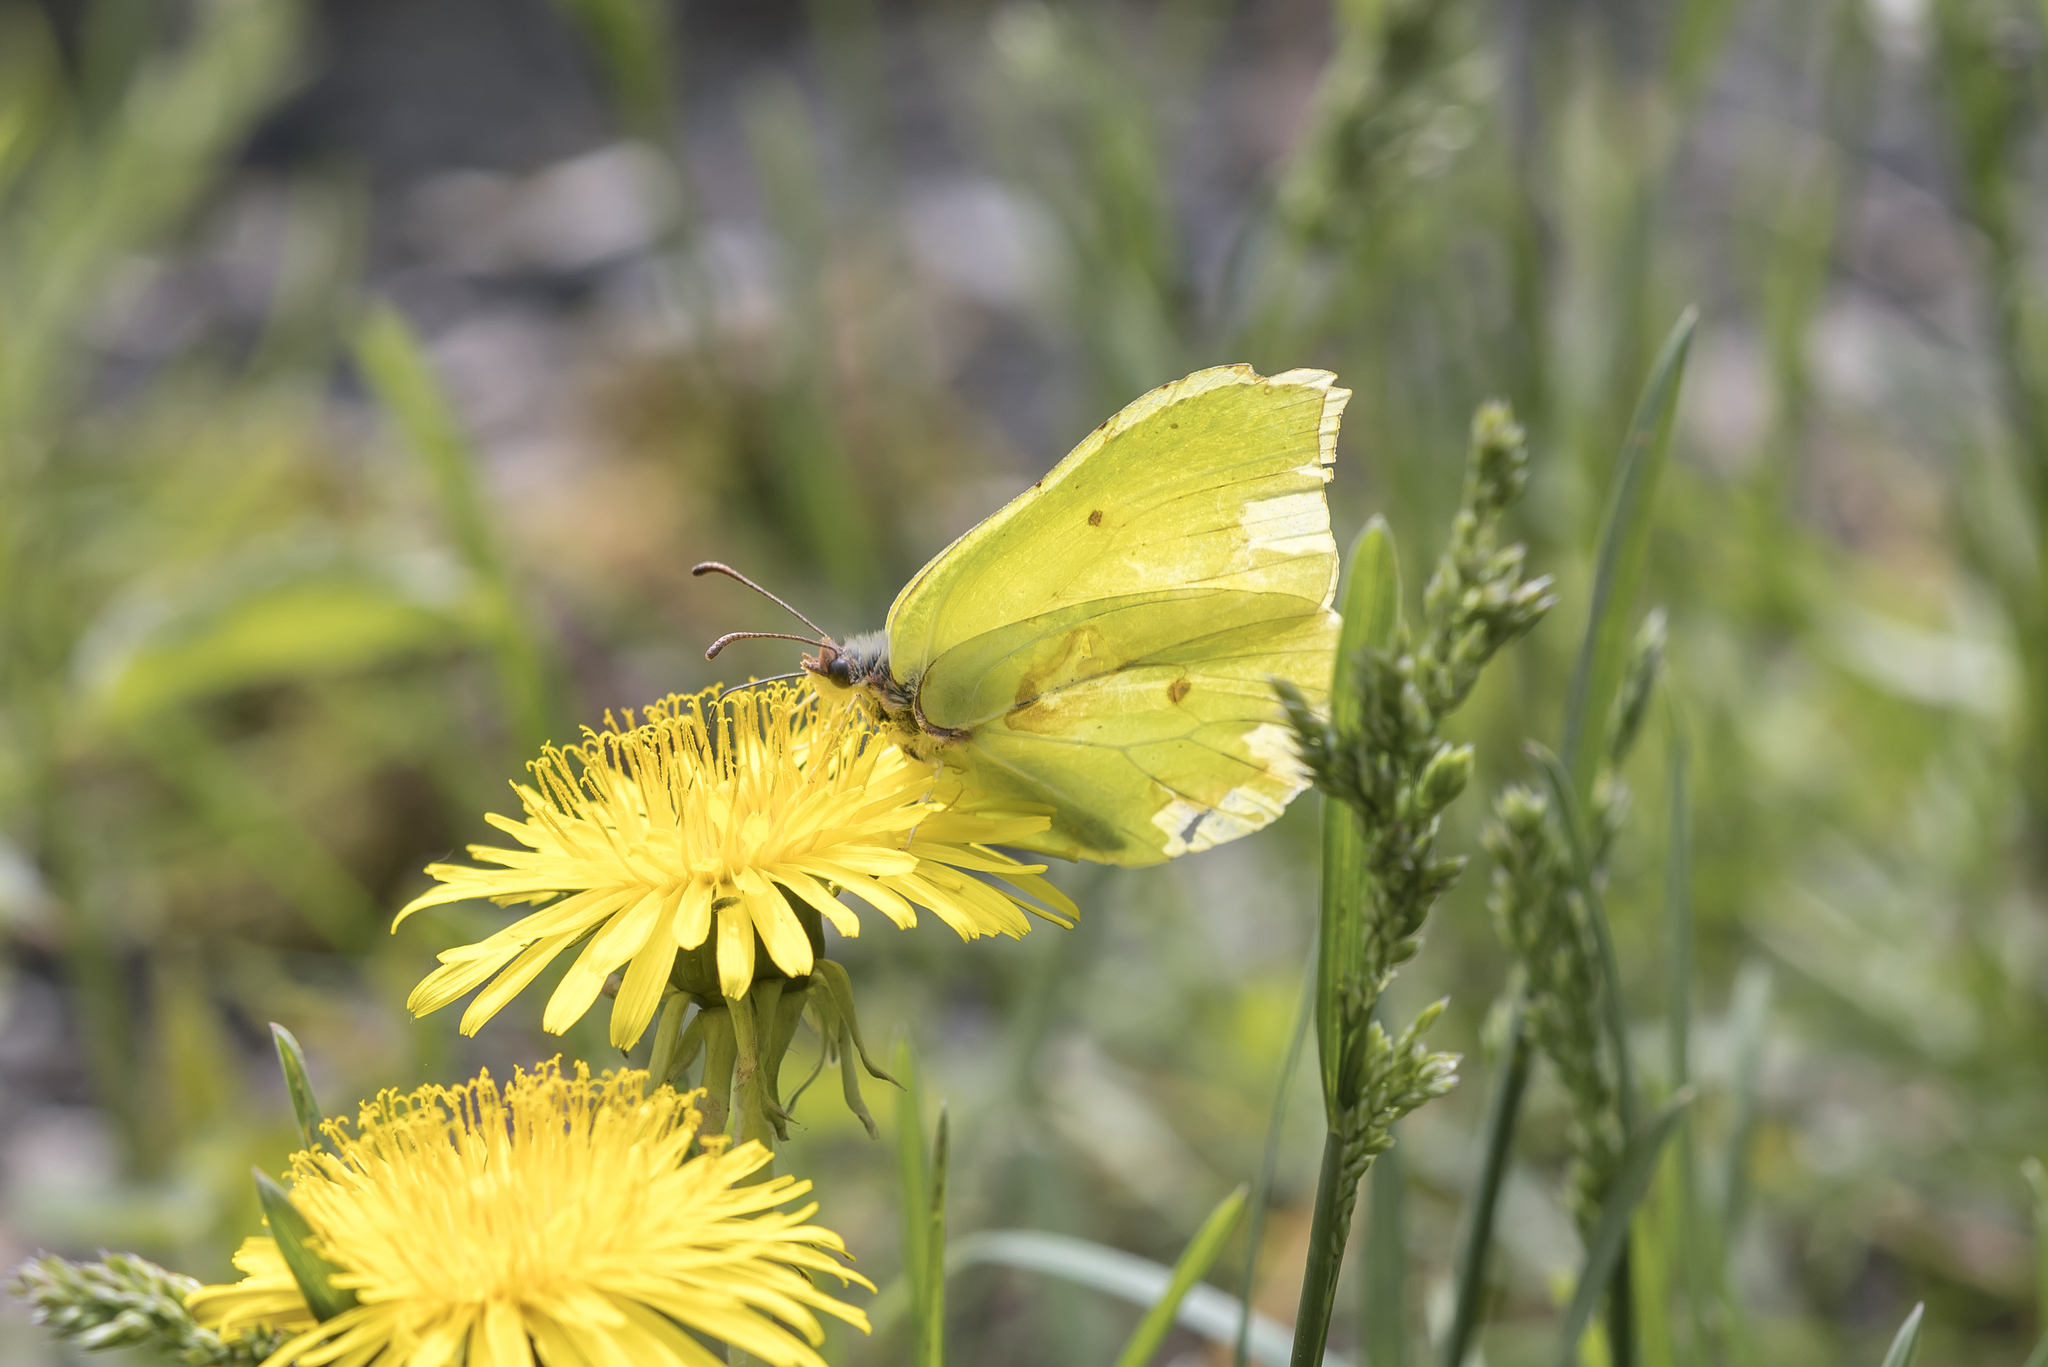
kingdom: Animalia
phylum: Arthropoda
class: Insecta
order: Lepidoptera
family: Pieridae
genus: Gonepteryx
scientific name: Gonepteryx rhamni
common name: Brimstone
